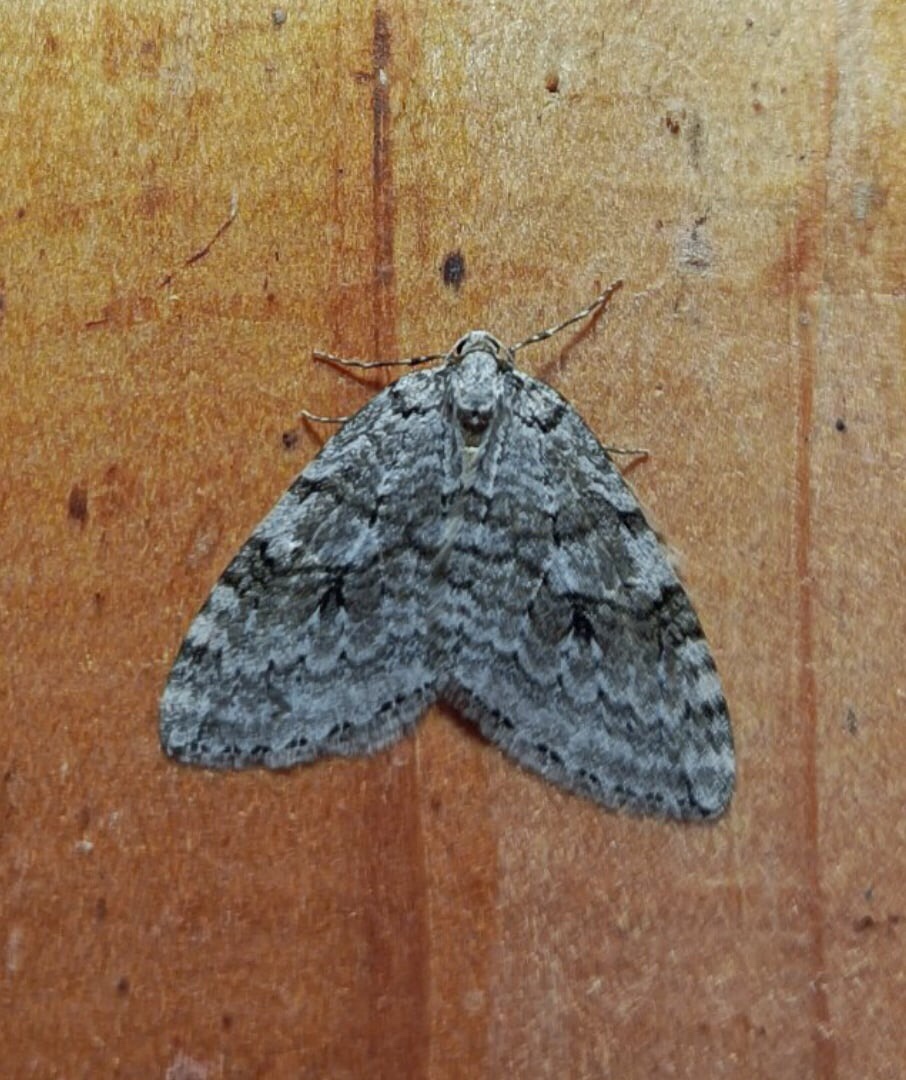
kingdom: Animalia
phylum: Arthropoda
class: Insecta
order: Lepidoptera
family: Geometridae
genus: Epirrita
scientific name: Epirrita autumnata
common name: Autumnal moth
